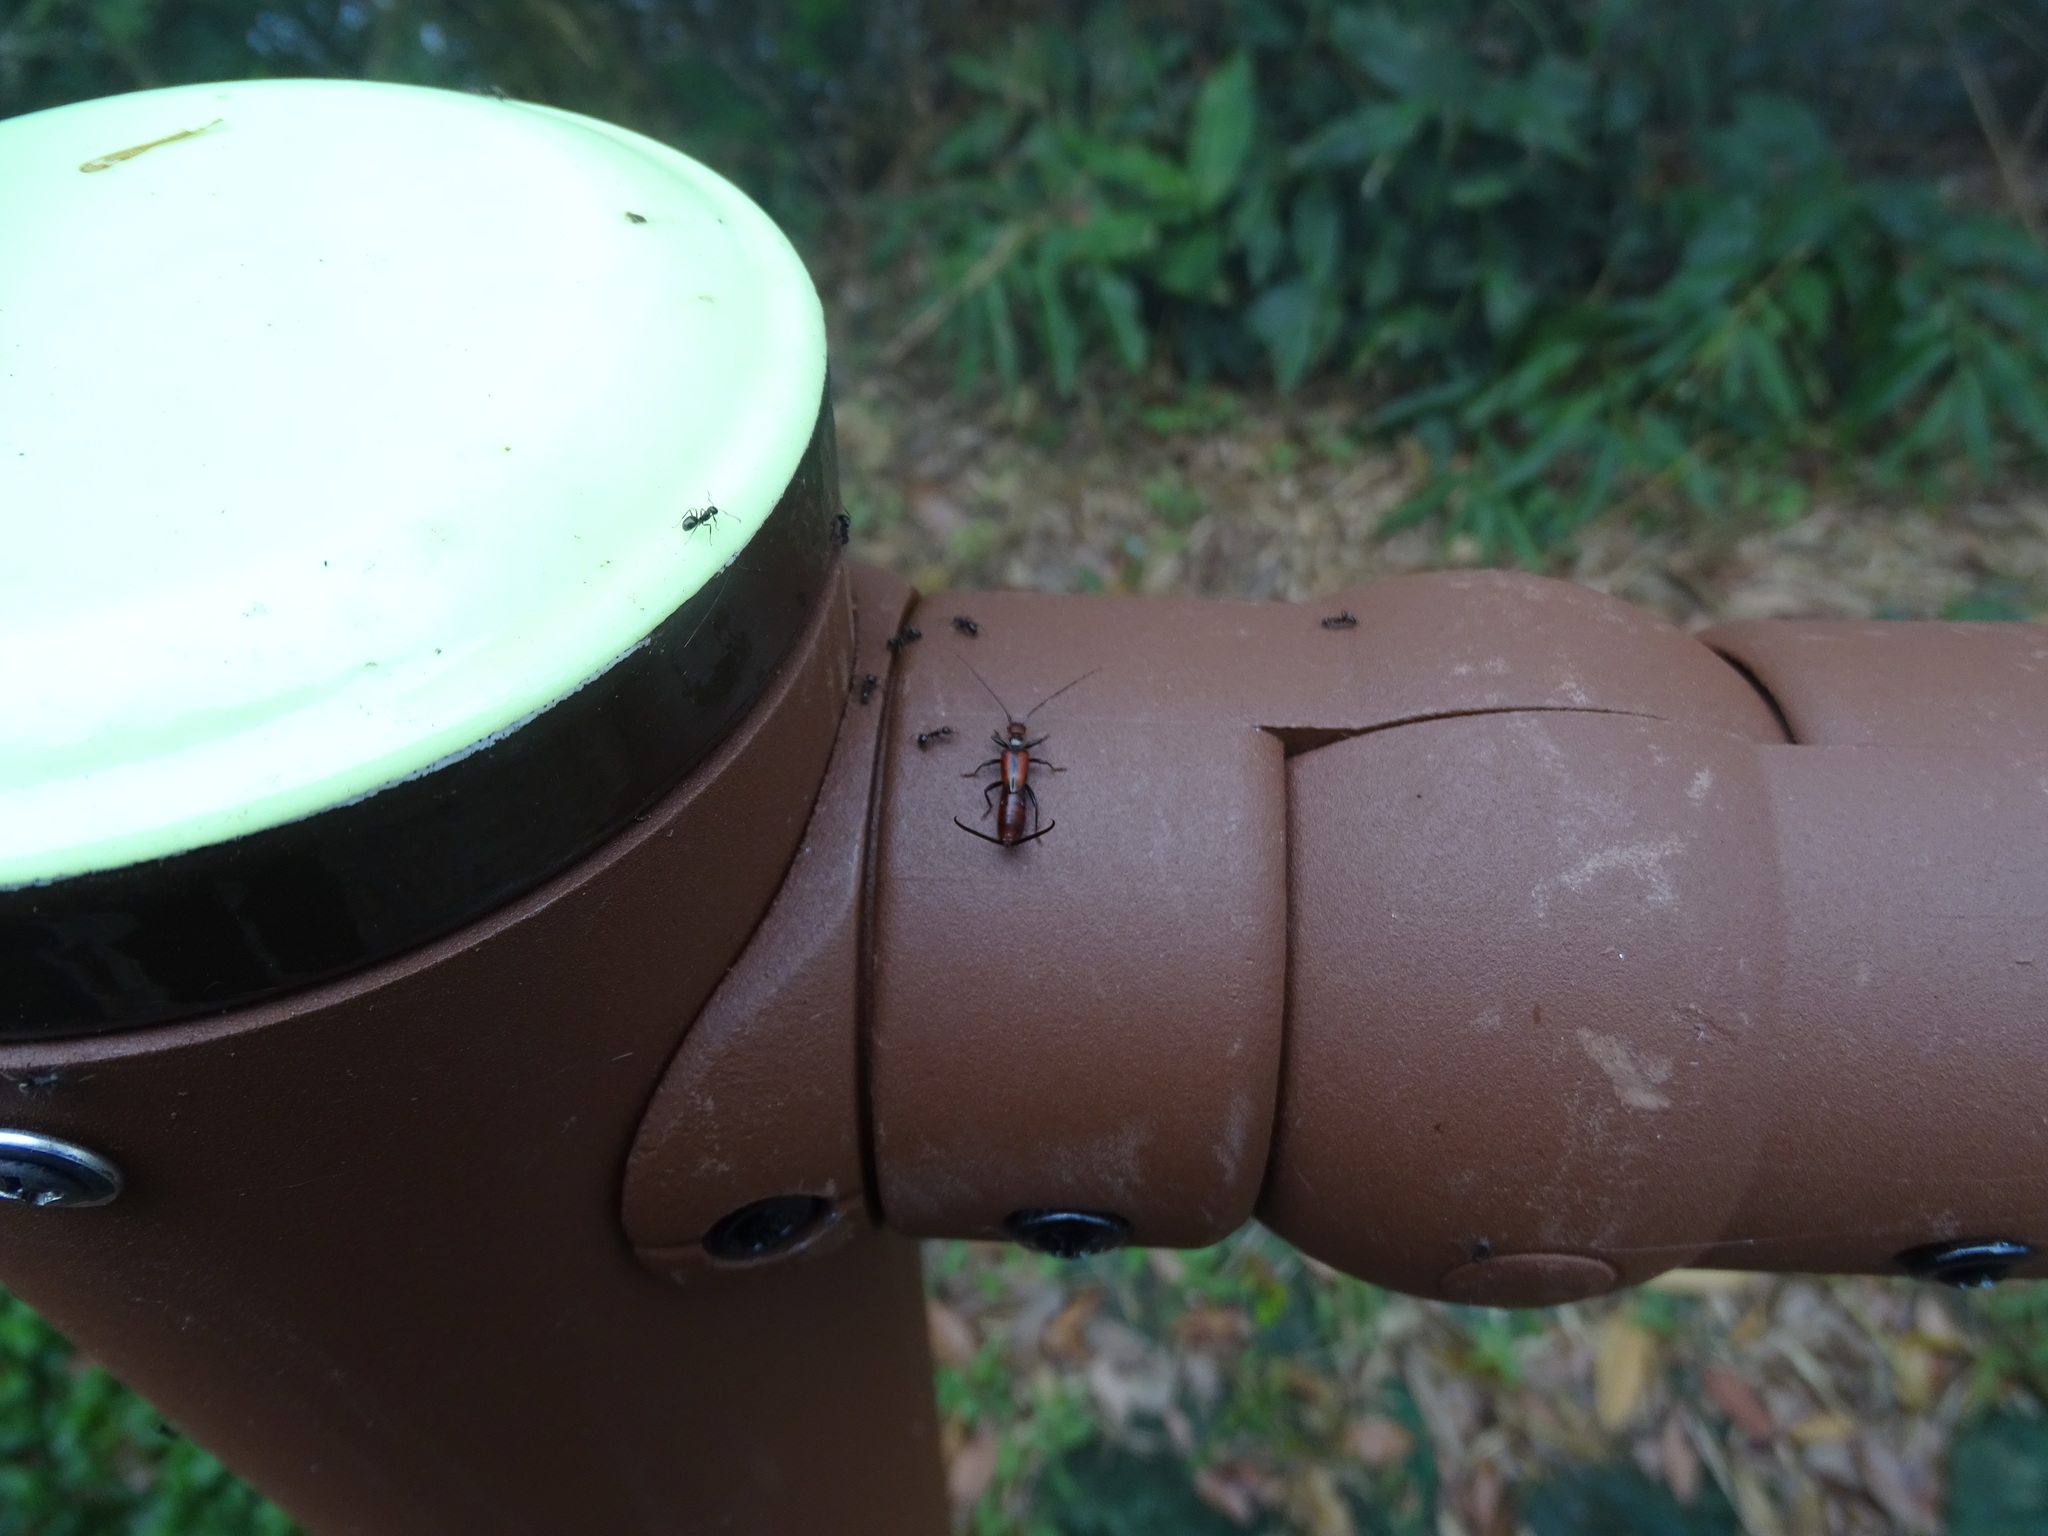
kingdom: Animalia
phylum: Arthropoda
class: Insecta
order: Dermaptera
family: Forficulidae
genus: Timomenus
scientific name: Timomenus komarovi
